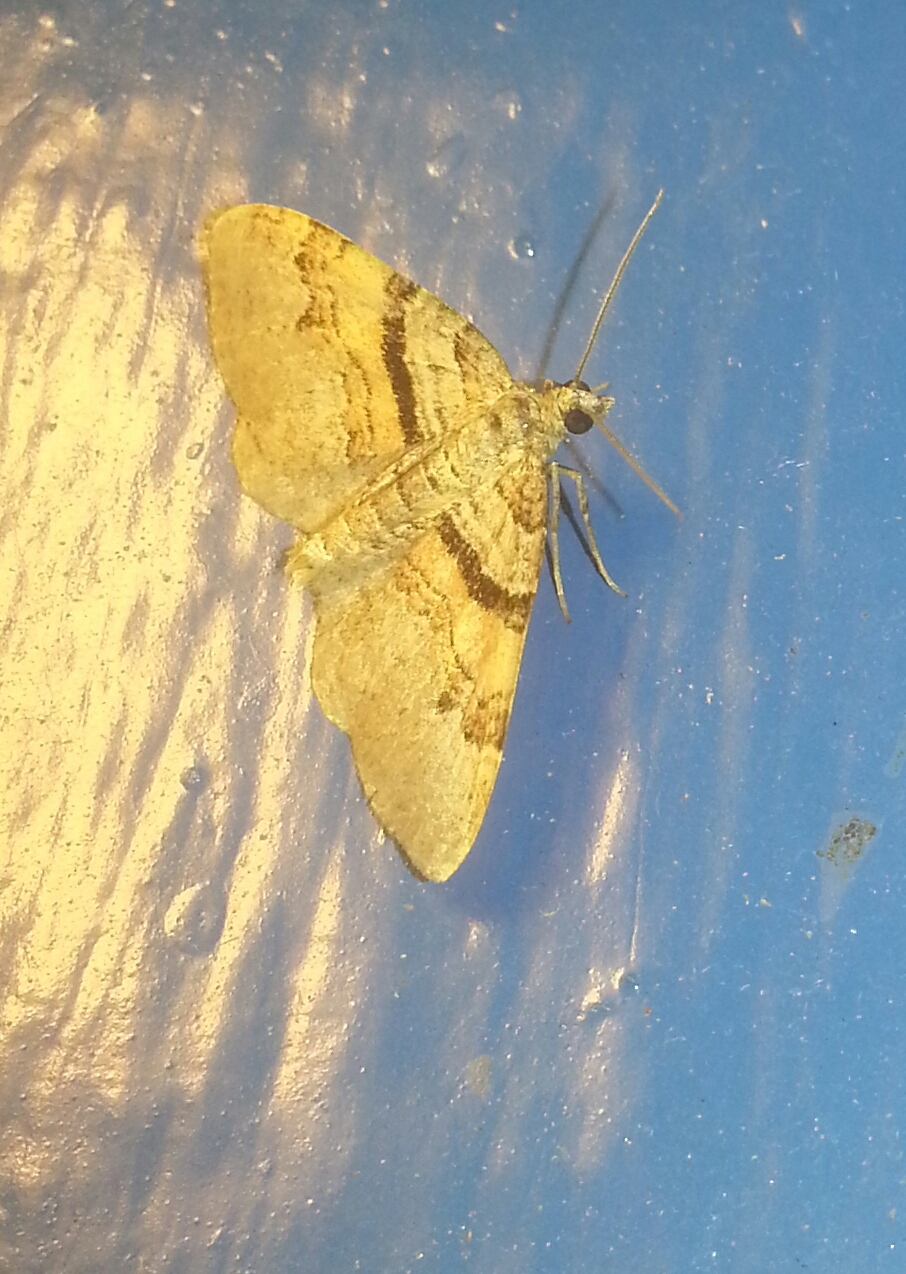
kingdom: Animalia
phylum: Arthropoda
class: Insecta
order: Lepidoptera
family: Geometridae
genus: Xanthorhoe
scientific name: Xanthorhoe labradorensis
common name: Labrador carpet
